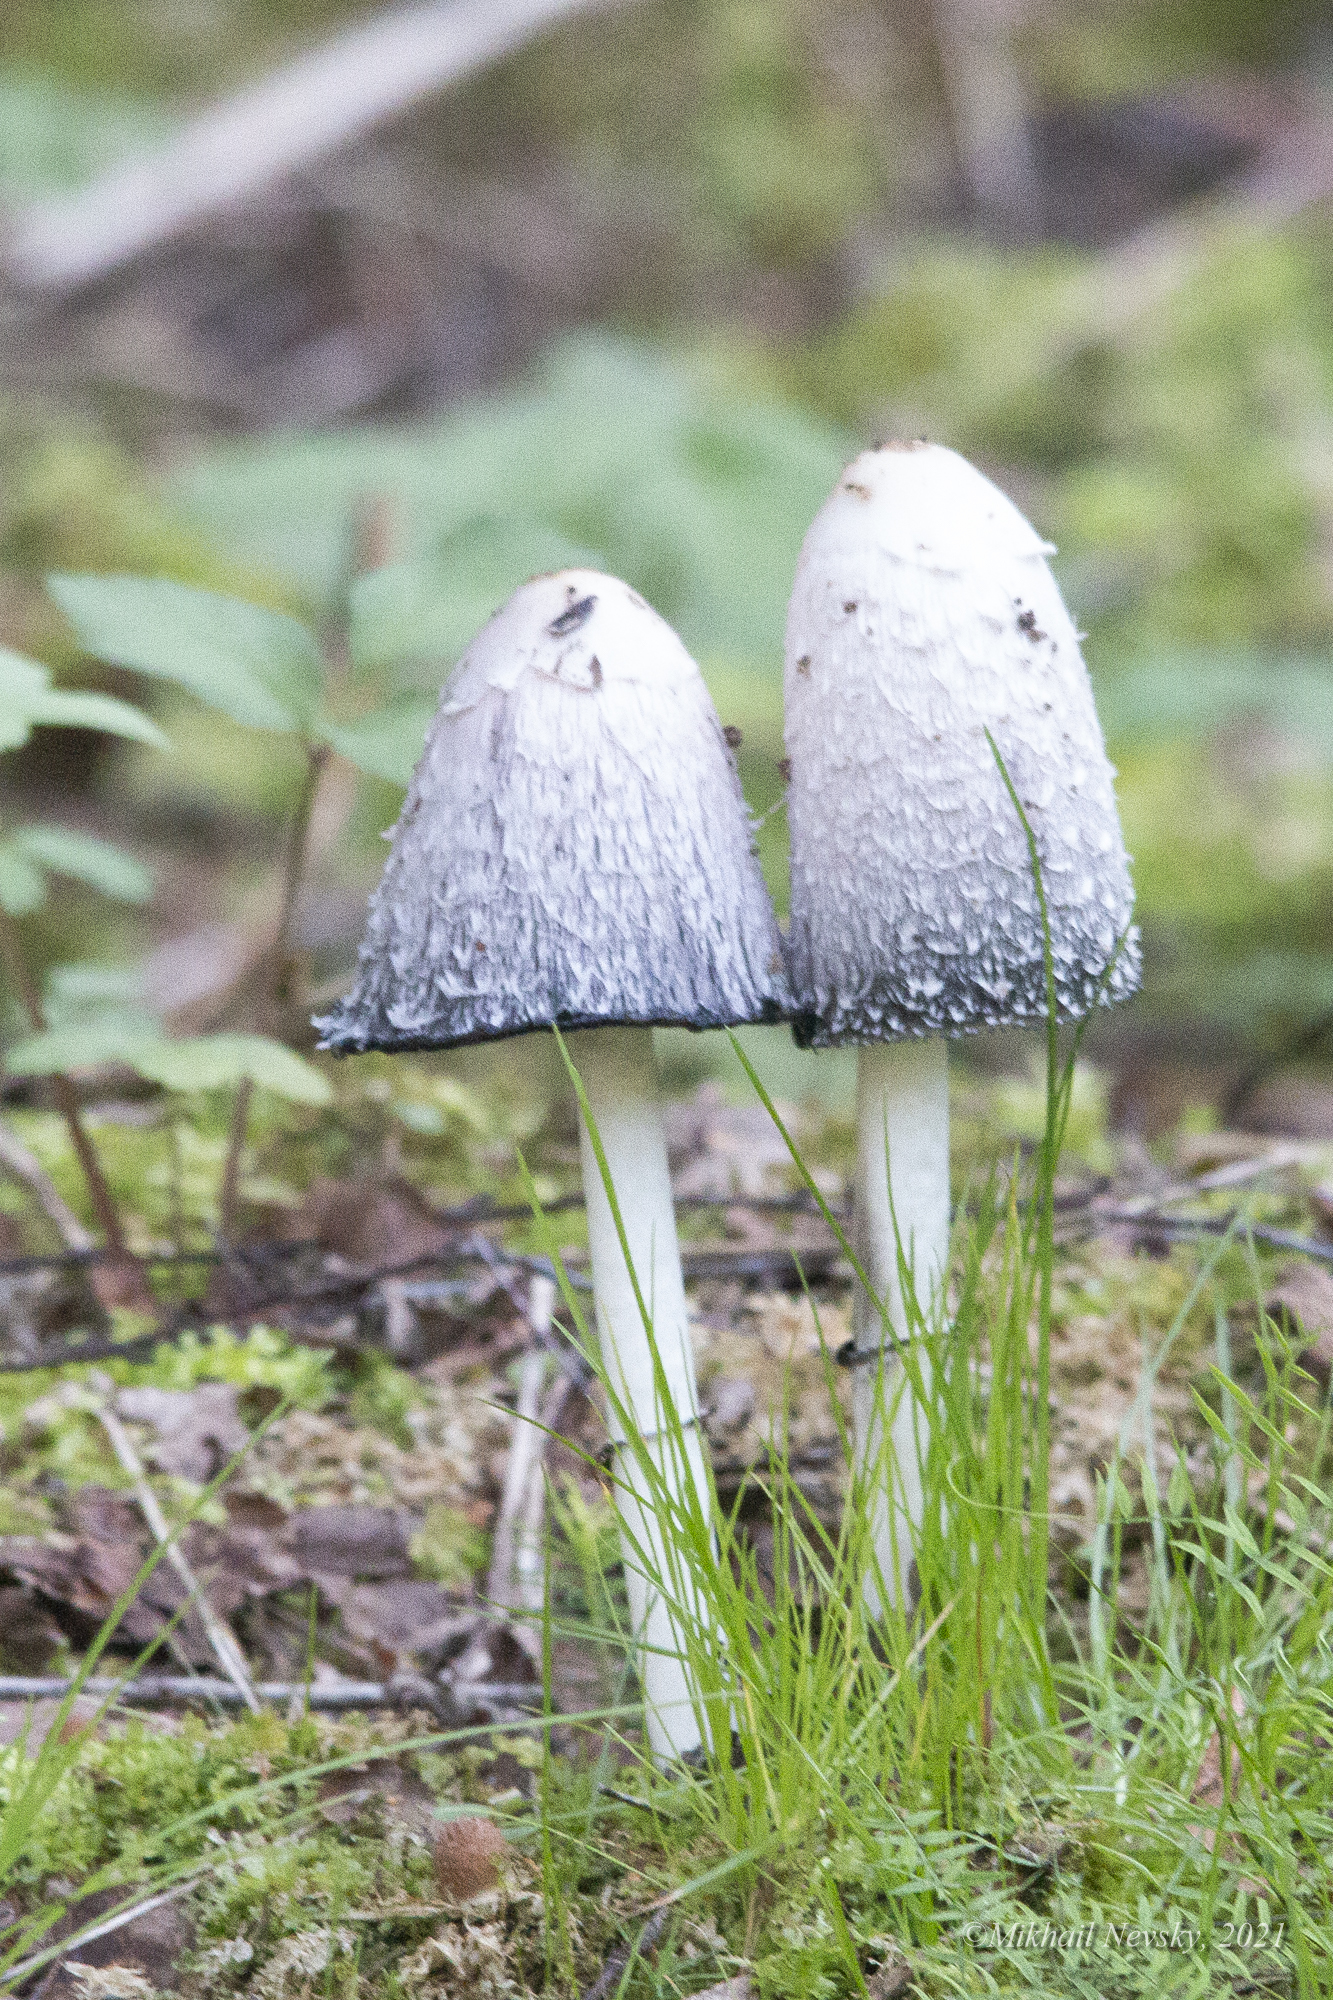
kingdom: Fungi
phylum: Basidiomycota
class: Agaricomycetes
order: Agaricales
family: Agaricaceae
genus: Coprinus
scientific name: Coprinus comatus
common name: Lawyer's wig
